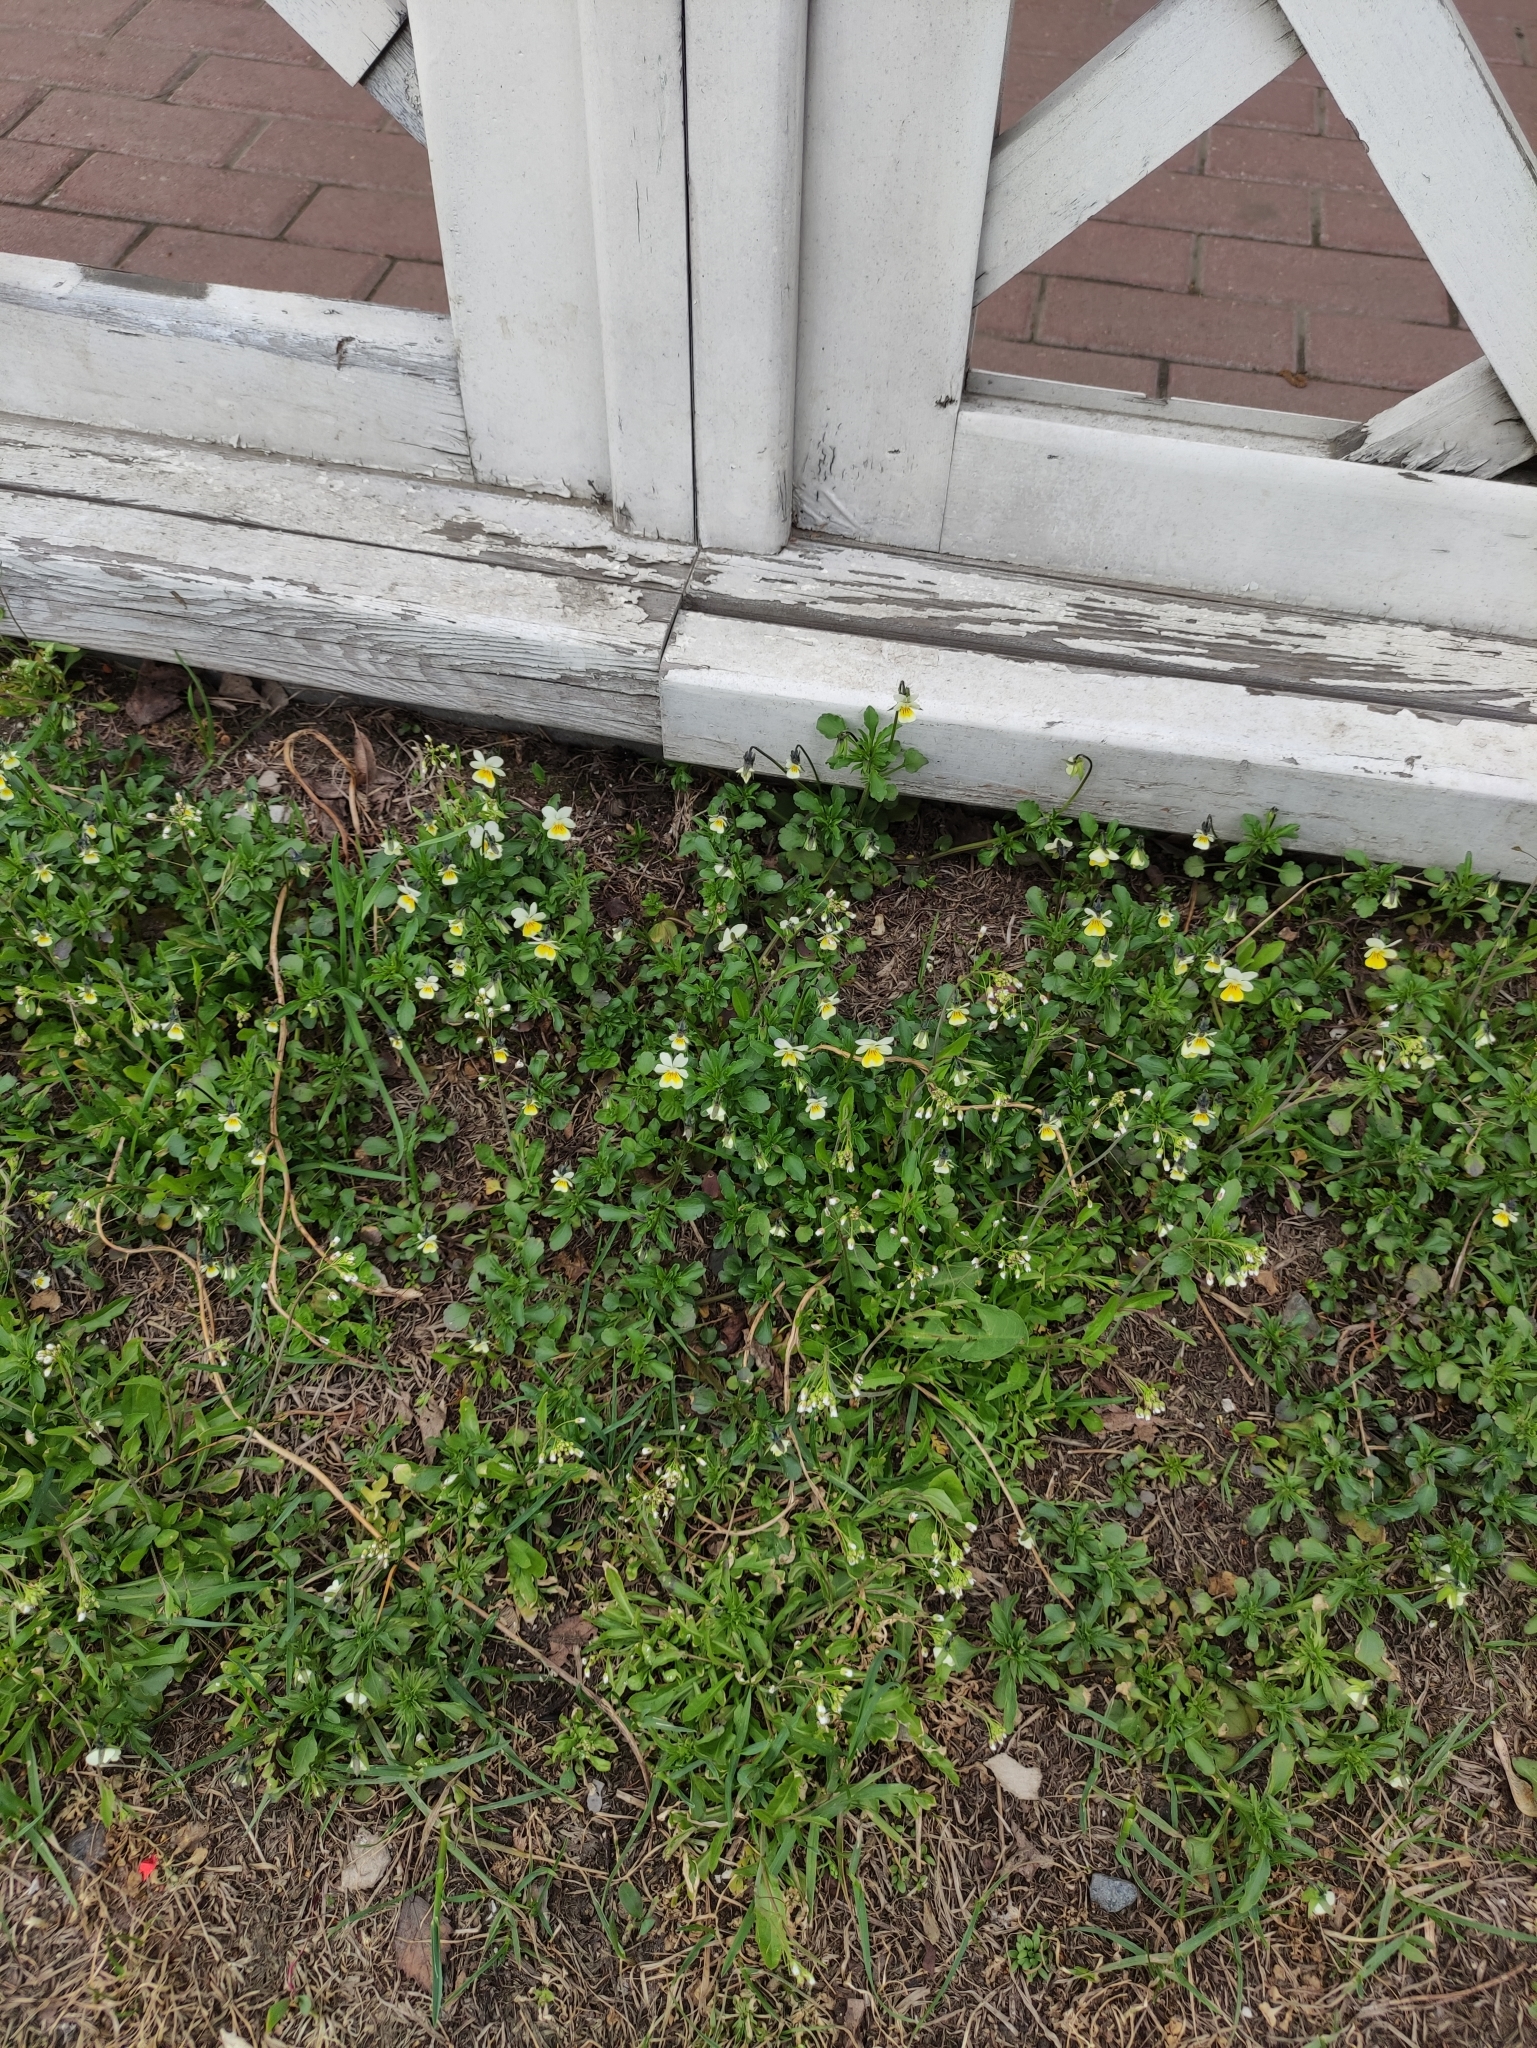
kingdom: Plantae
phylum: Tracheophyta
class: Magnoliopsida
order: Malpighiales
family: Violaceae
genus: Viola
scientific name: Viola arvensis
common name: Field pansy
